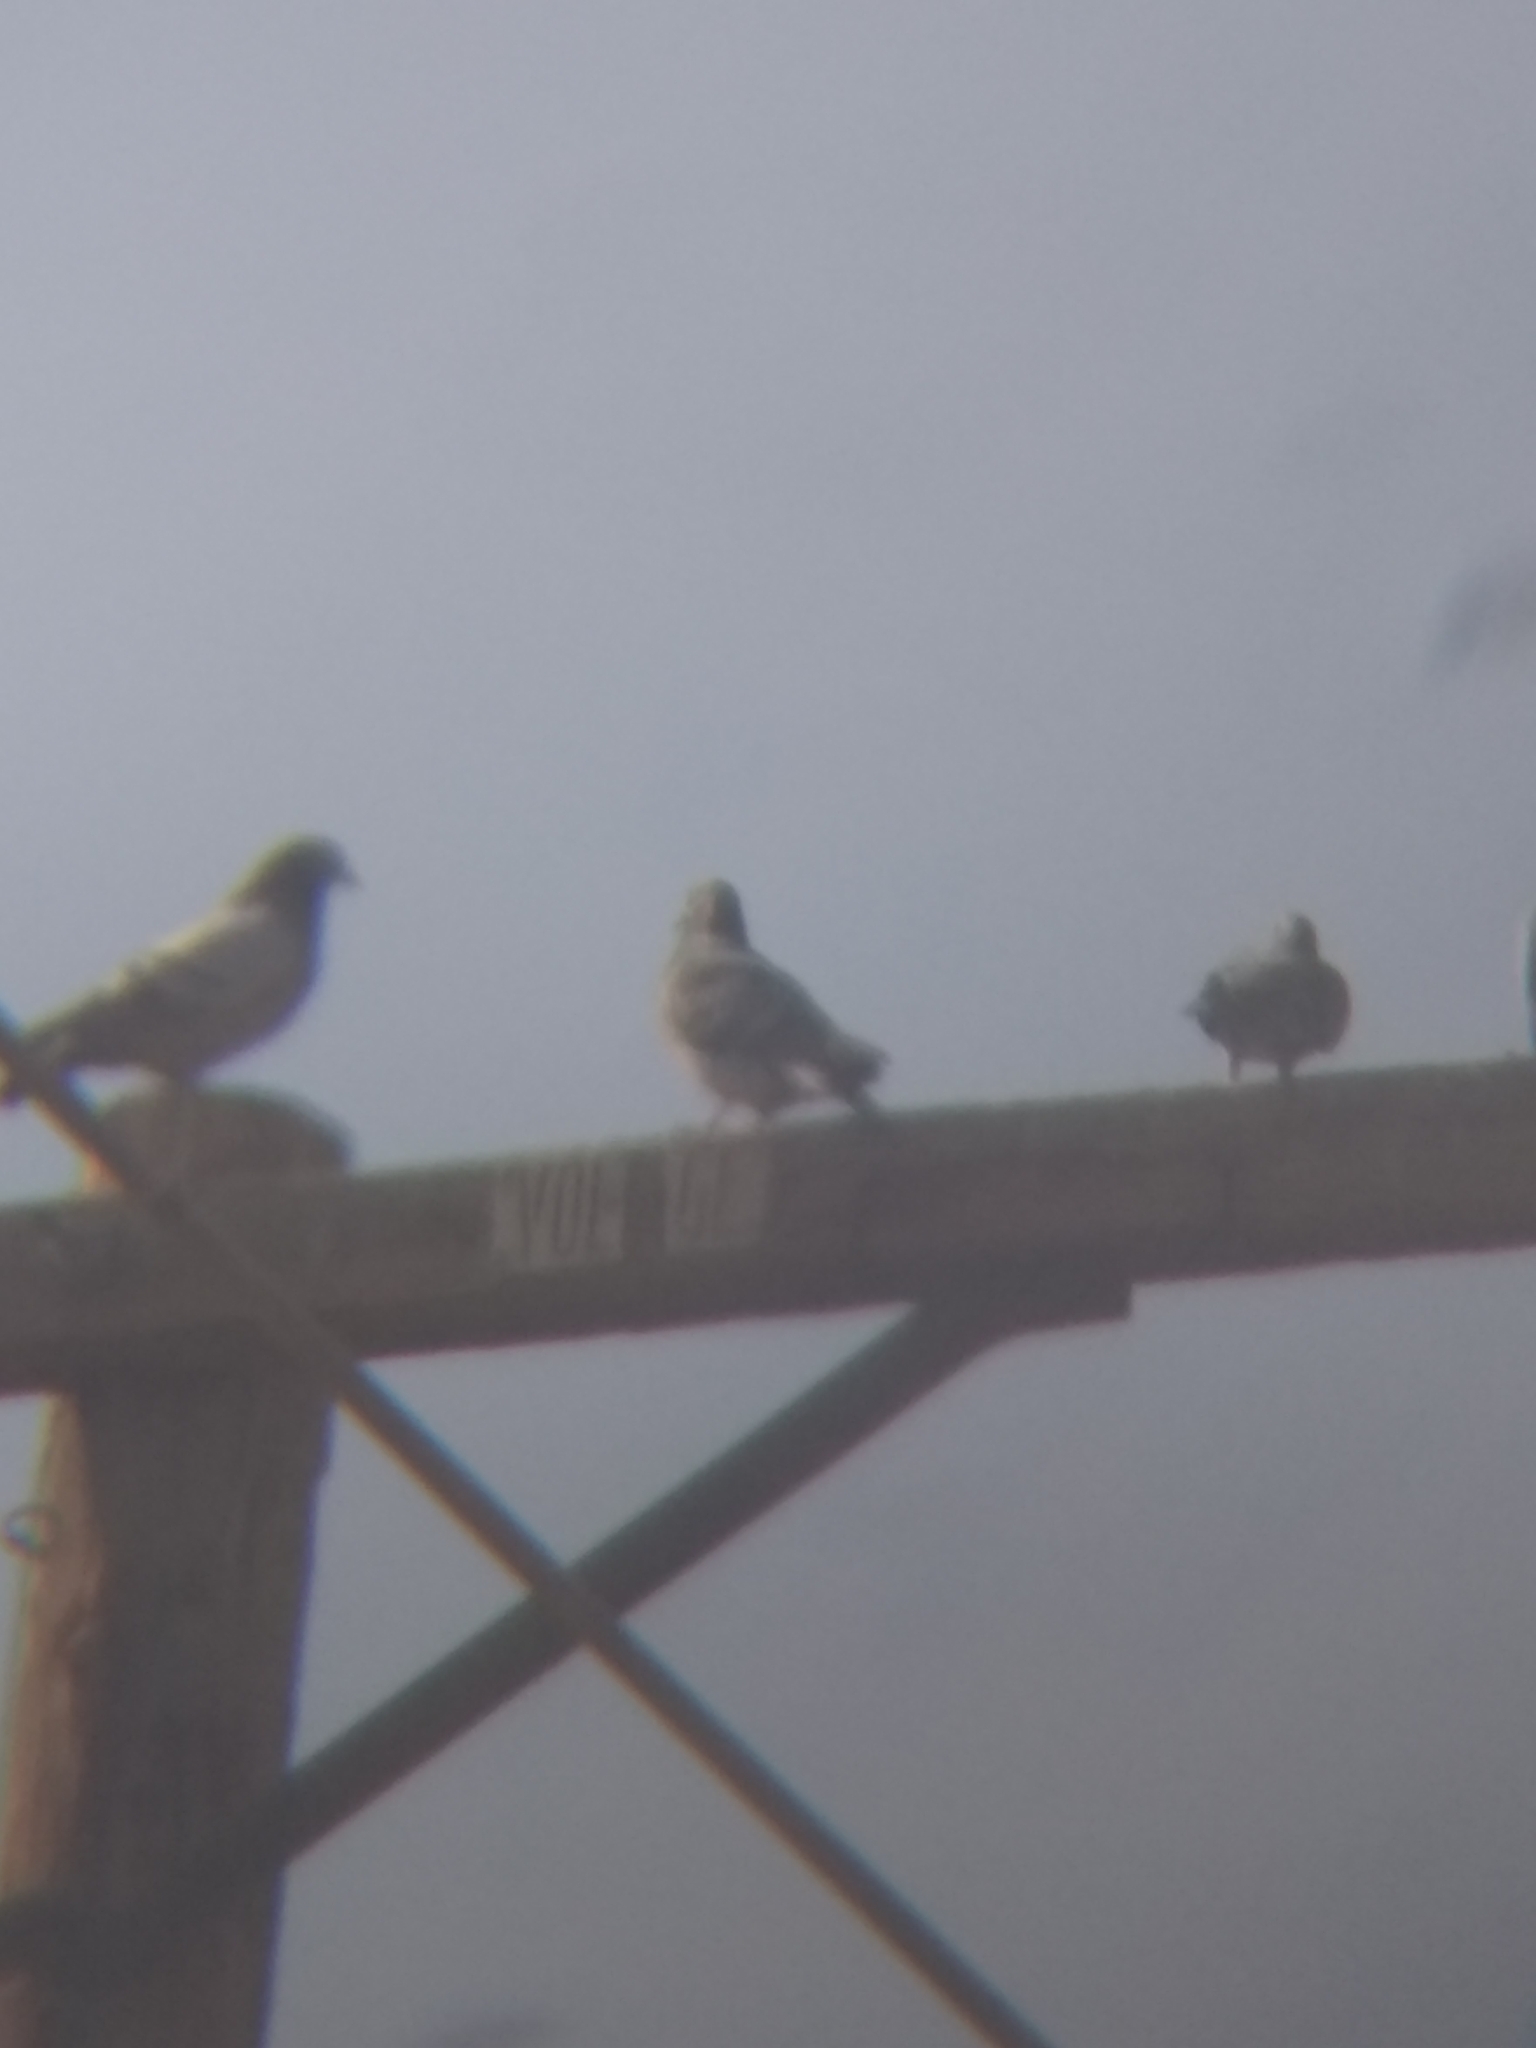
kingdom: Animalia
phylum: Chordata
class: Aves
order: Columbiformes
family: Columbidae
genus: Columba
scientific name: Columba livia
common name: Rock pigeon
